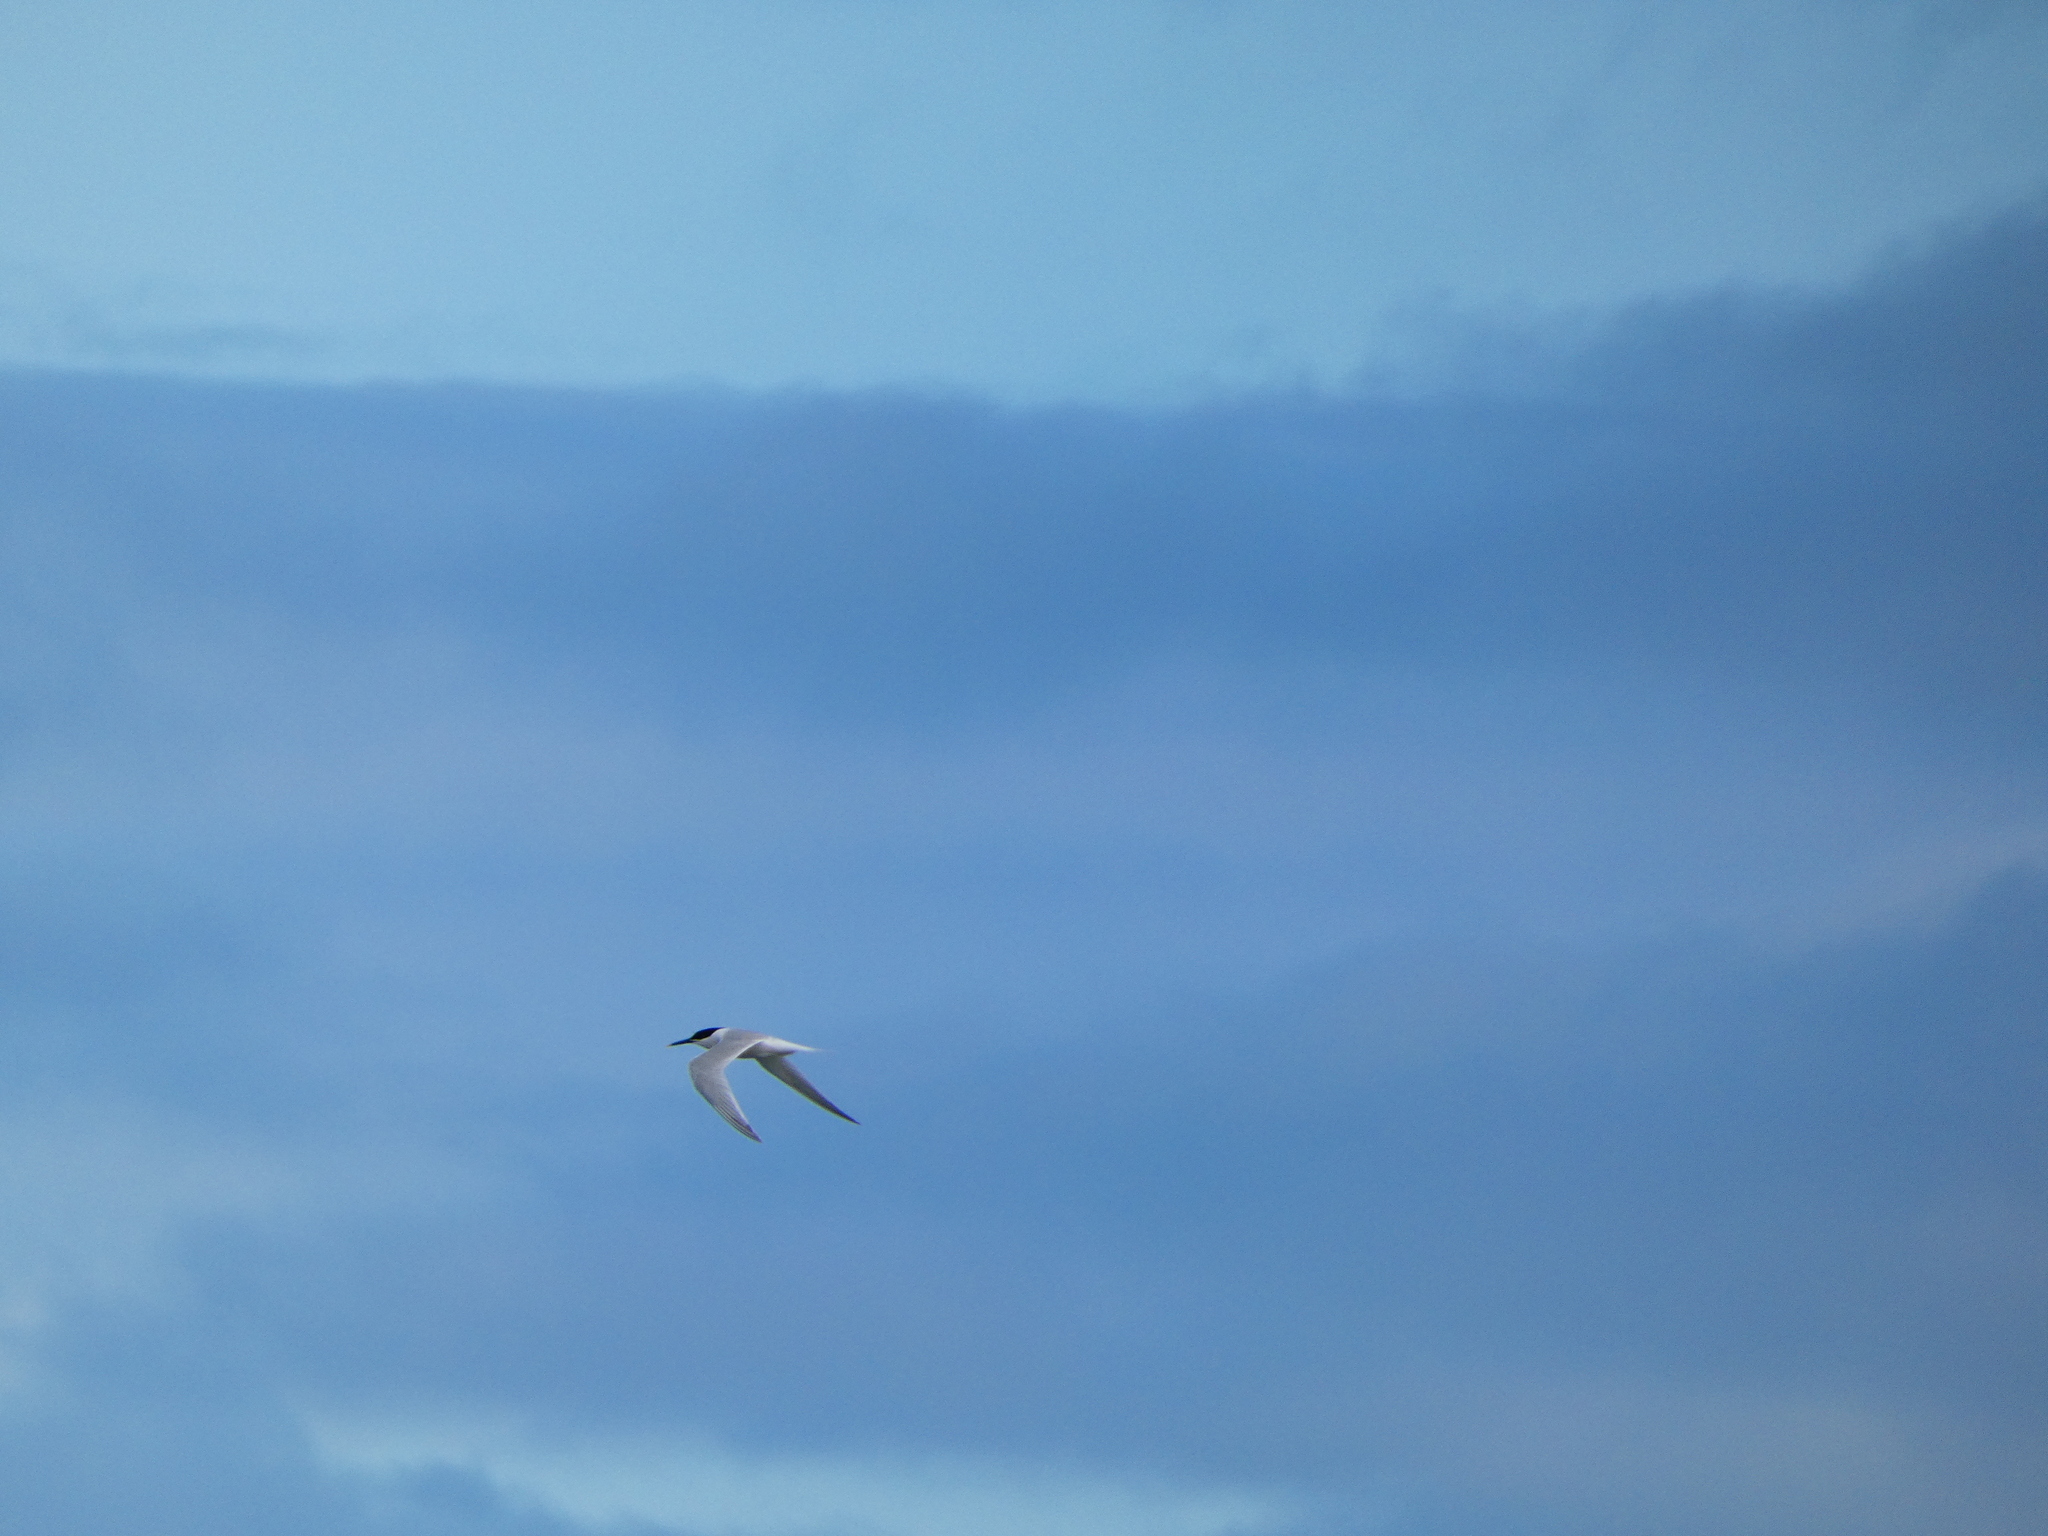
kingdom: Animalia
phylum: Chordata
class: Aves
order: Charadriiformes
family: Laridae
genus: Thalasseus
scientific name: Thalasseus sandvicensis
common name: Sandwich tern
